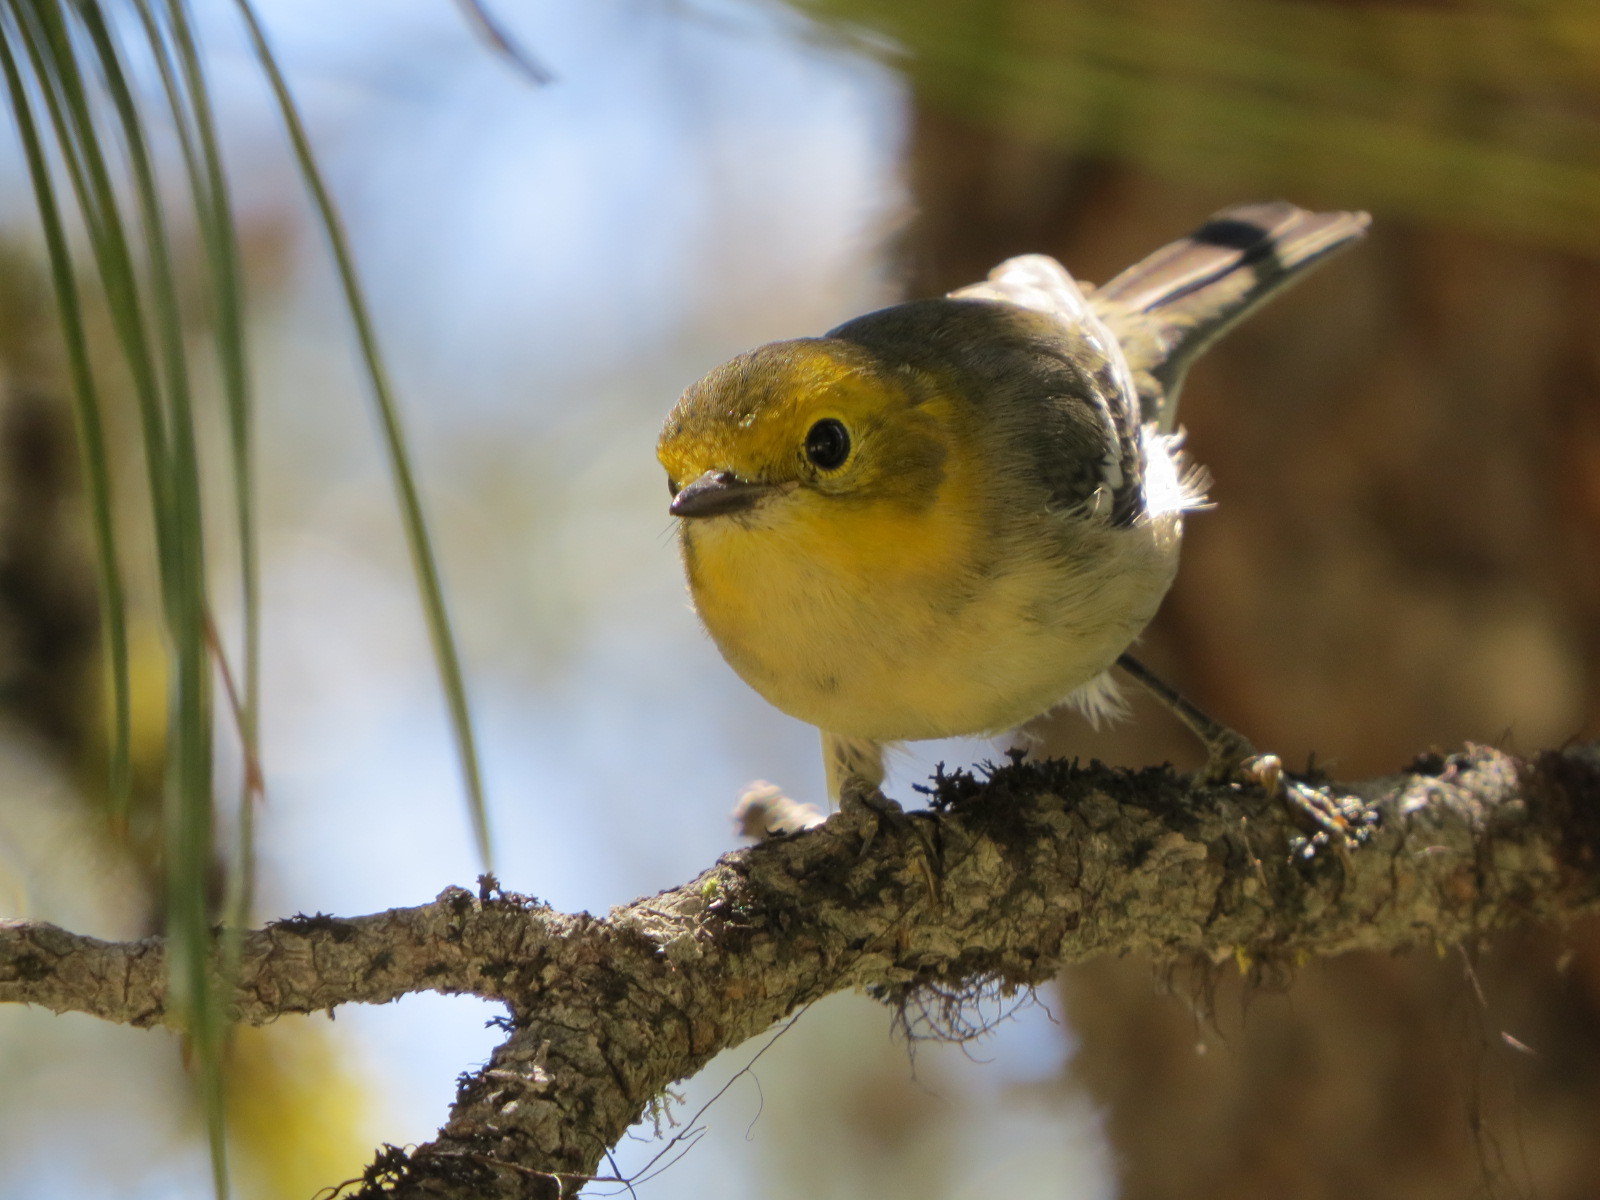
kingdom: Animalia
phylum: Chordata
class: Aves
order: Passeriformes
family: Parulidae
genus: Setophaga
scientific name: Setophaga occidentalis
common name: Hermit warbler
